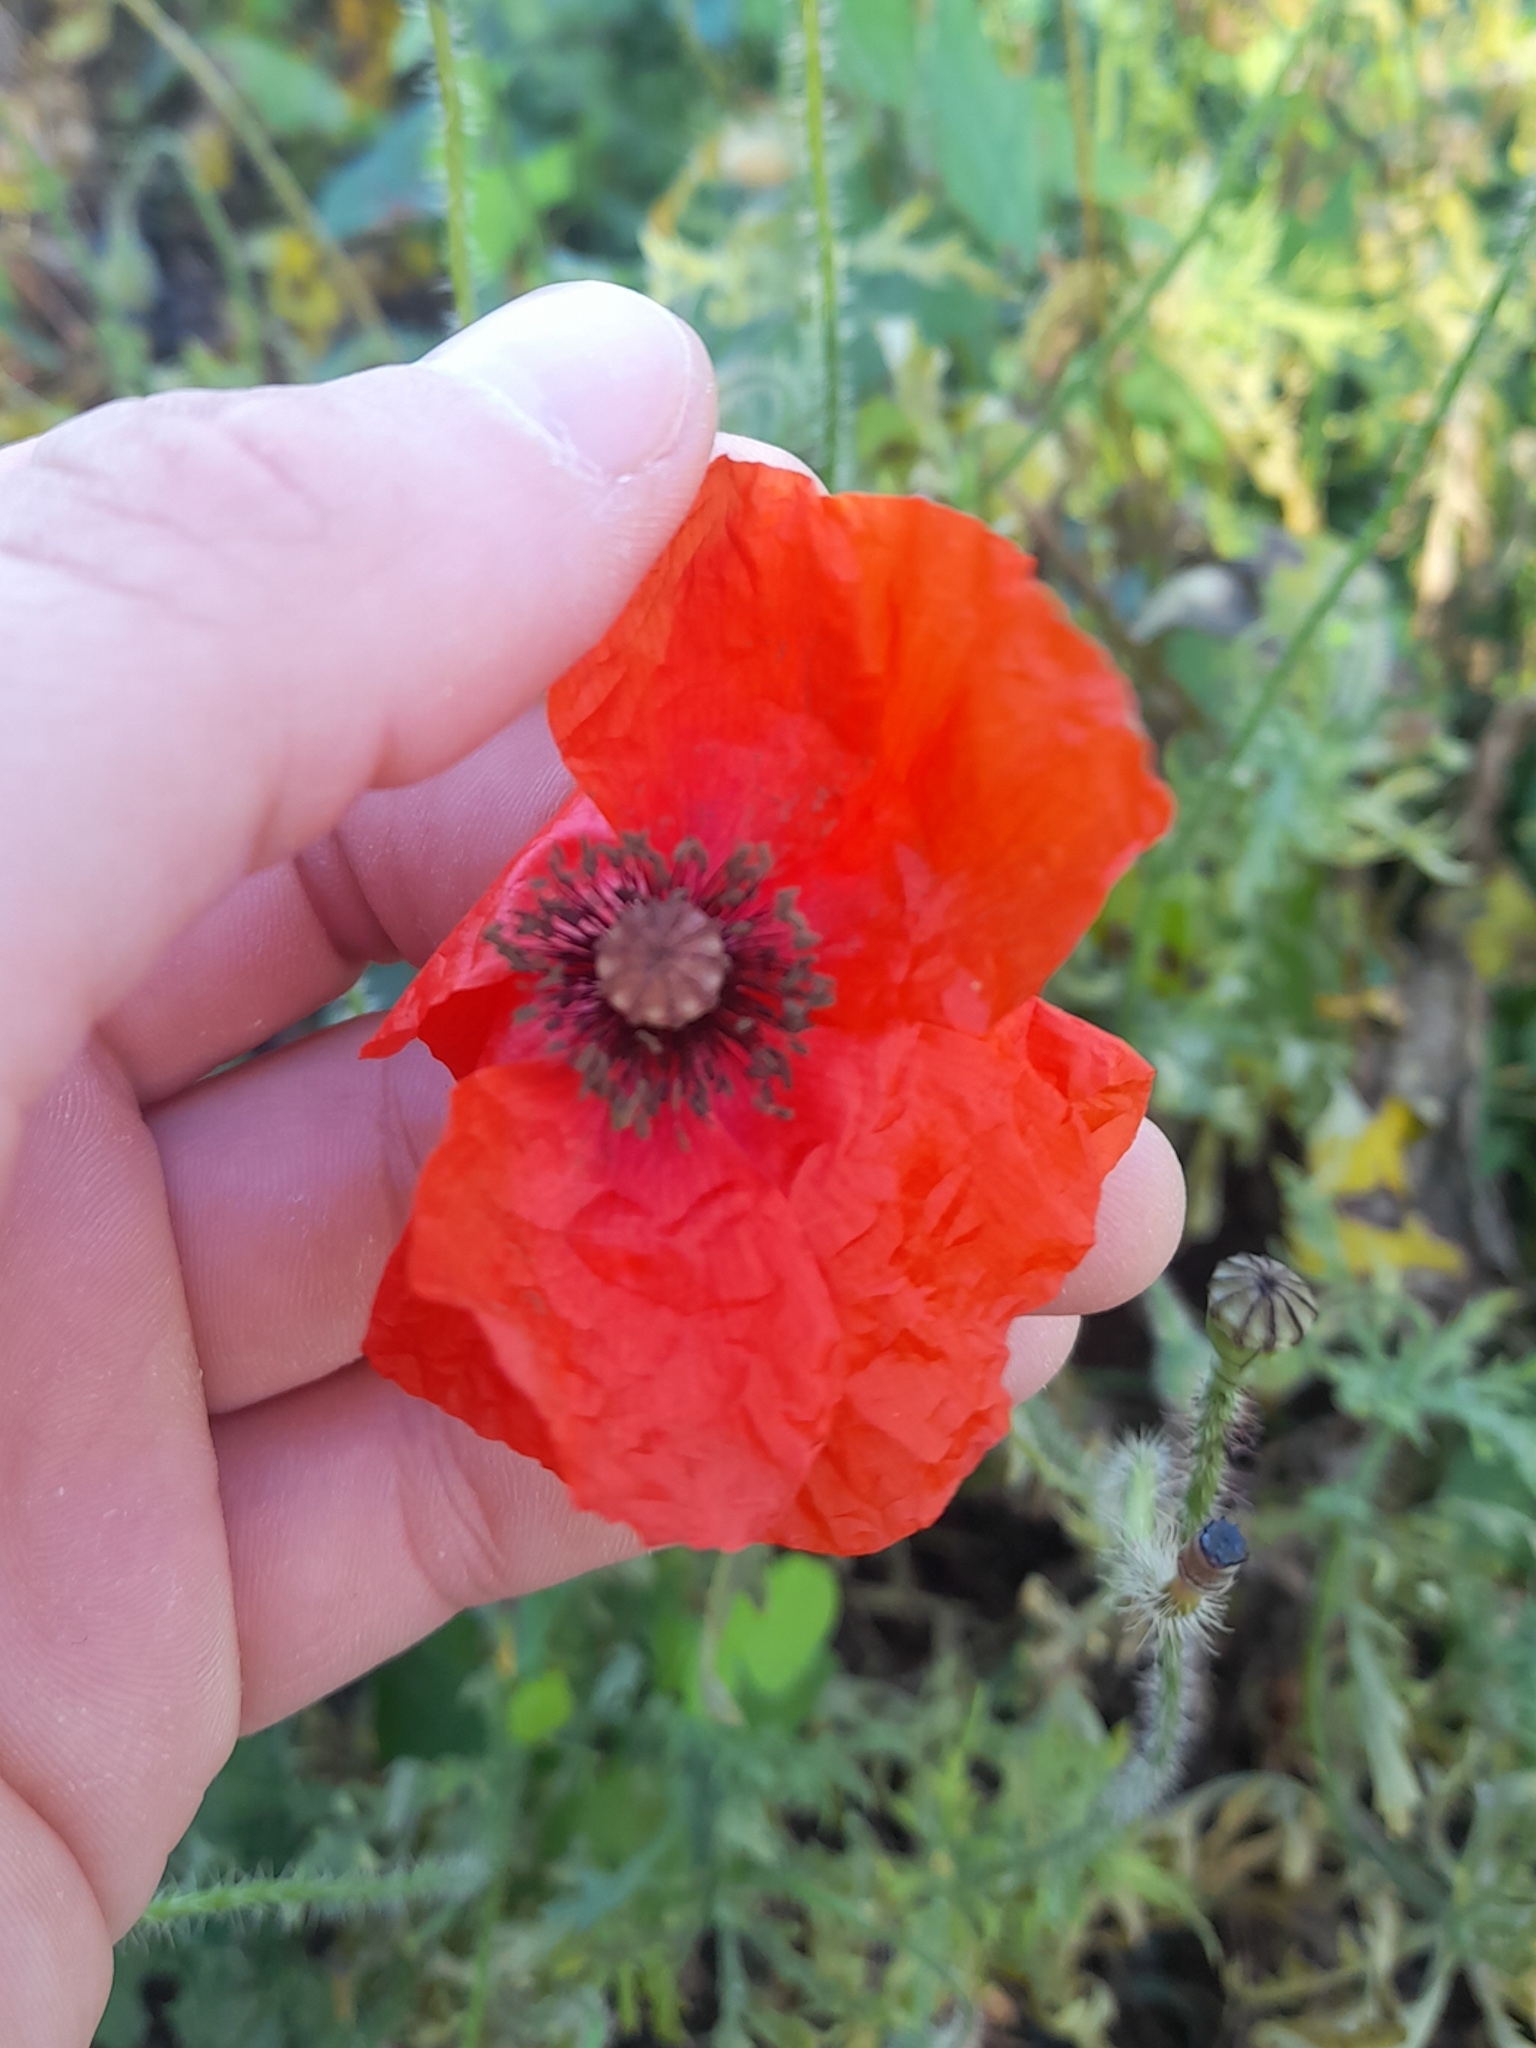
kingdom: Plantae
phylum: Tracheophyta
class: Magnoliopsida
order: Ranunculales
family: Papaveraceae
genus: Papaver
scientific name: Papaver rhoeas
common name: Corn poppy
